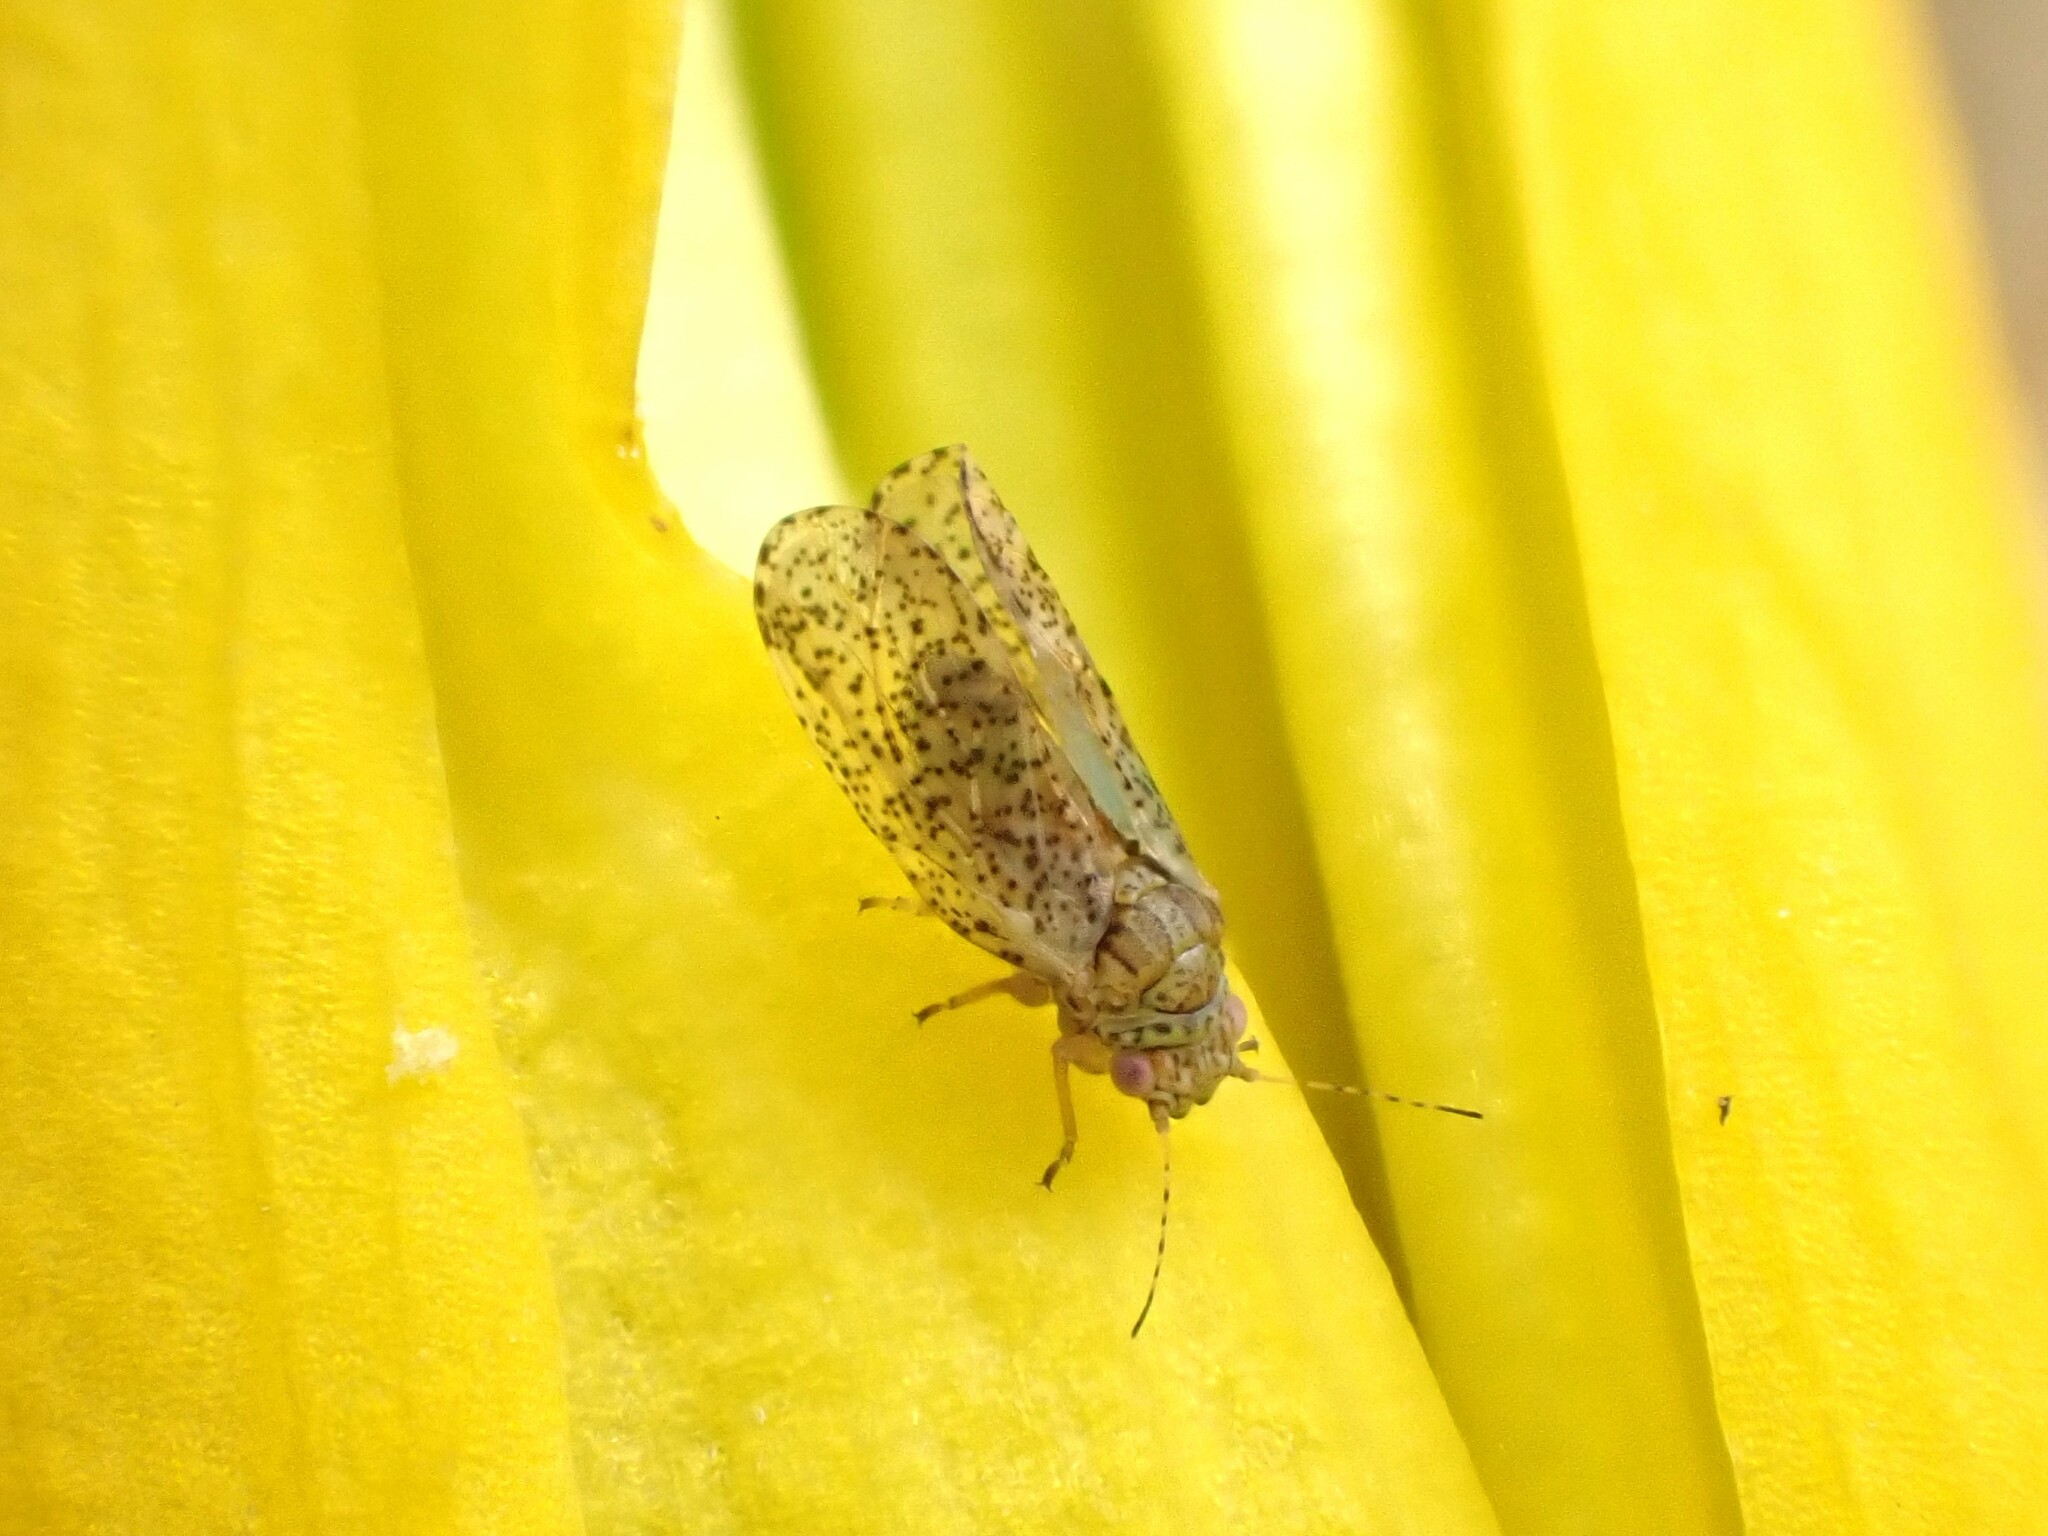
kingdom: Animalia
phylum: Arthropoda
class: Insecta
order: Hemiptera
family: Psyllidae
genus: Psylla
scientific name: Psylla frodobagginsi
